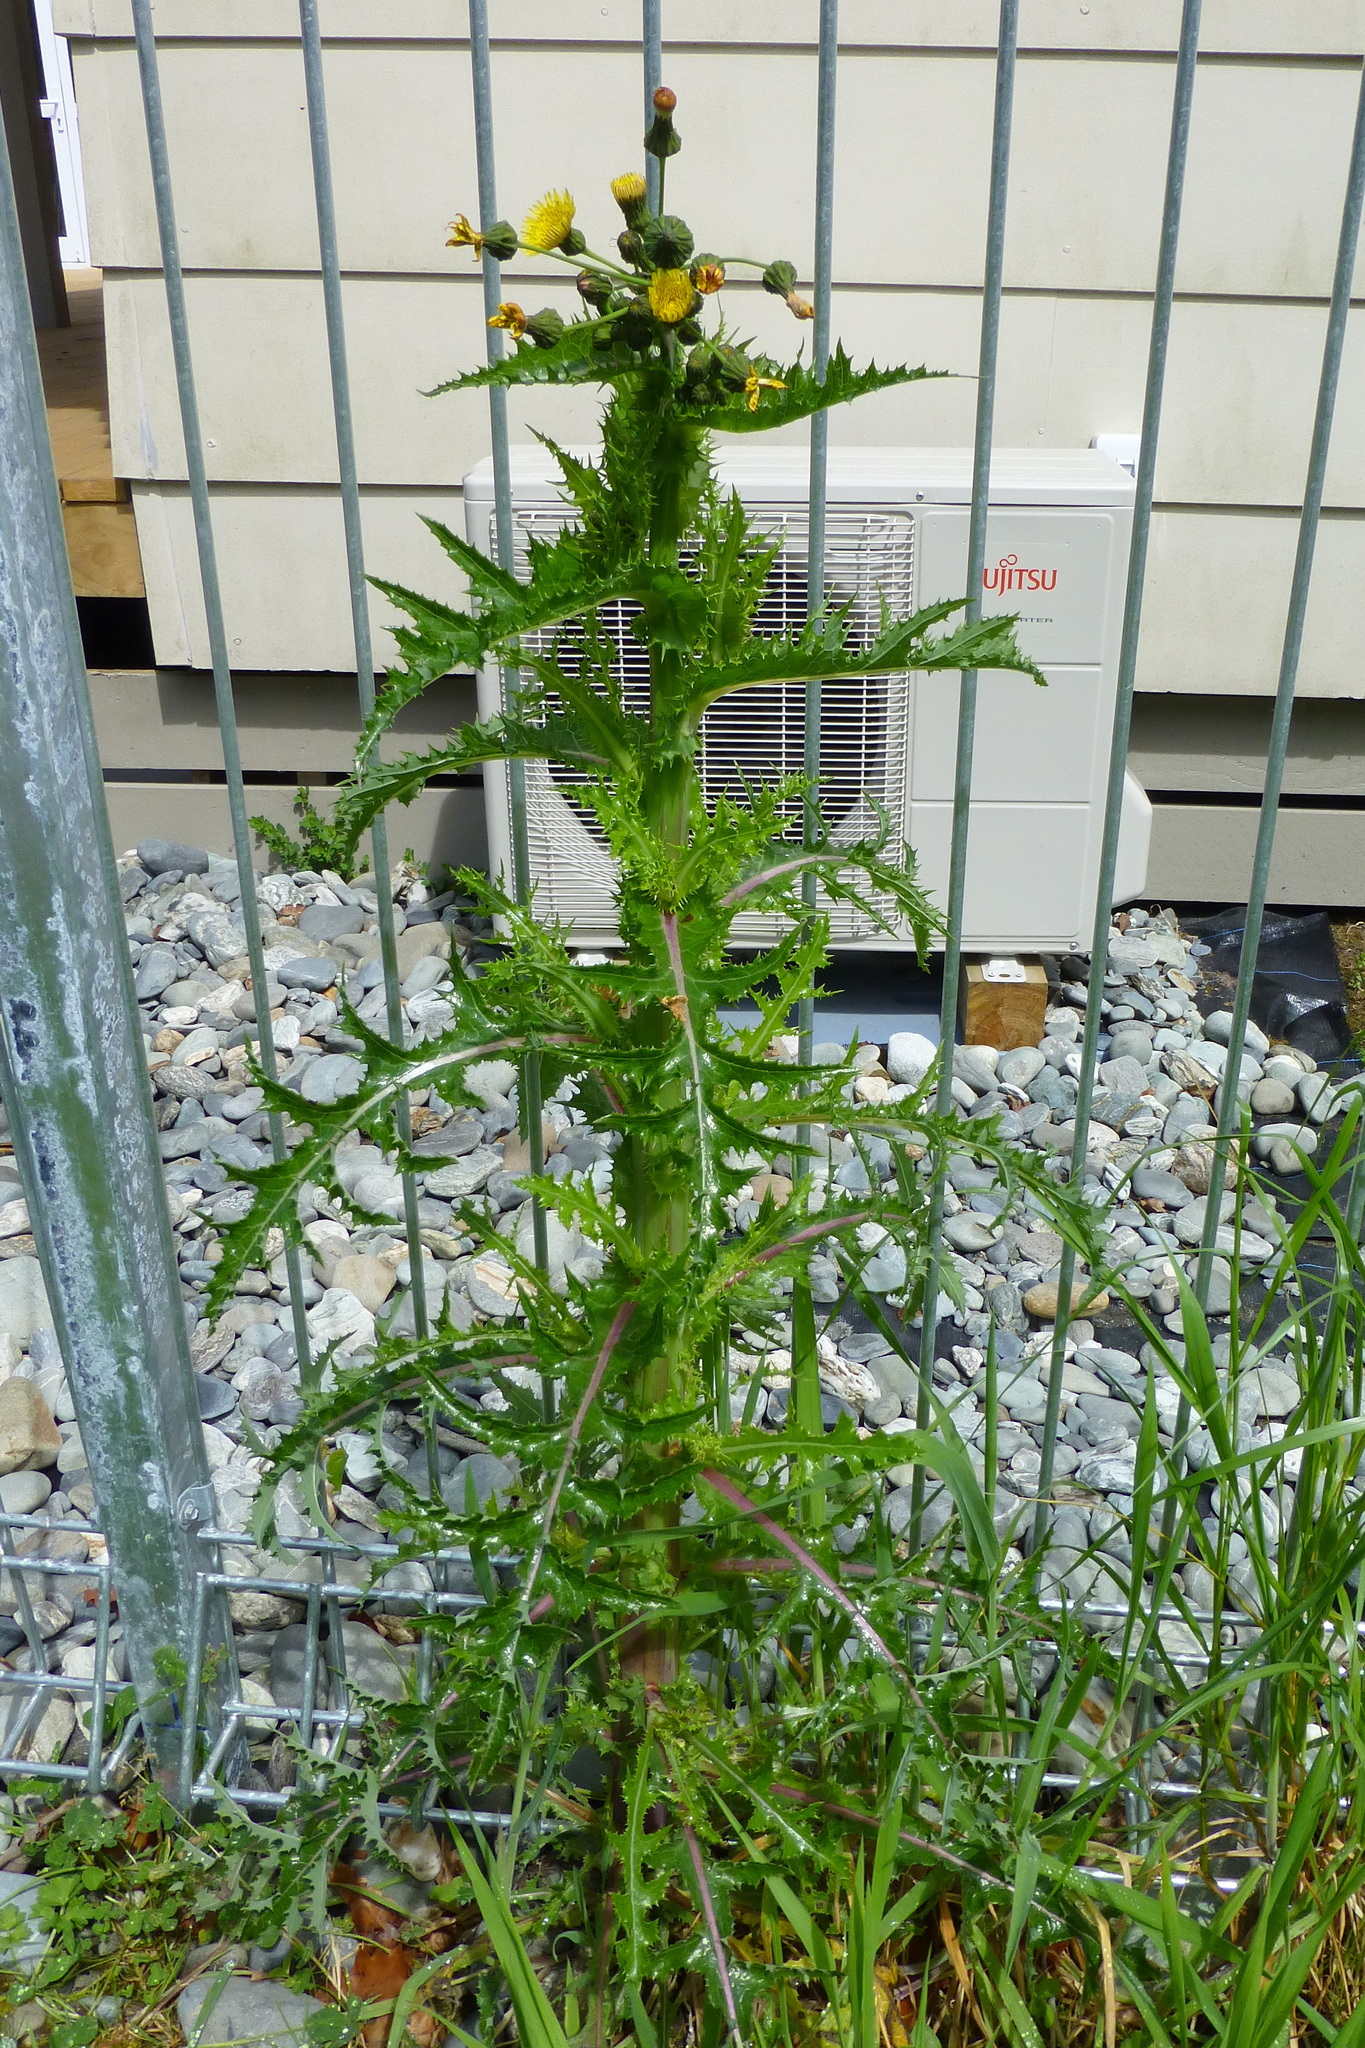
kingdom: Plantae
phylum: Tracheophyta
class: Magnoliopsida
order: Asterales
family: Asteraceae
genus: Sonchus
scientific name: Sonchus asper
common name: Prickly sow-thistle
